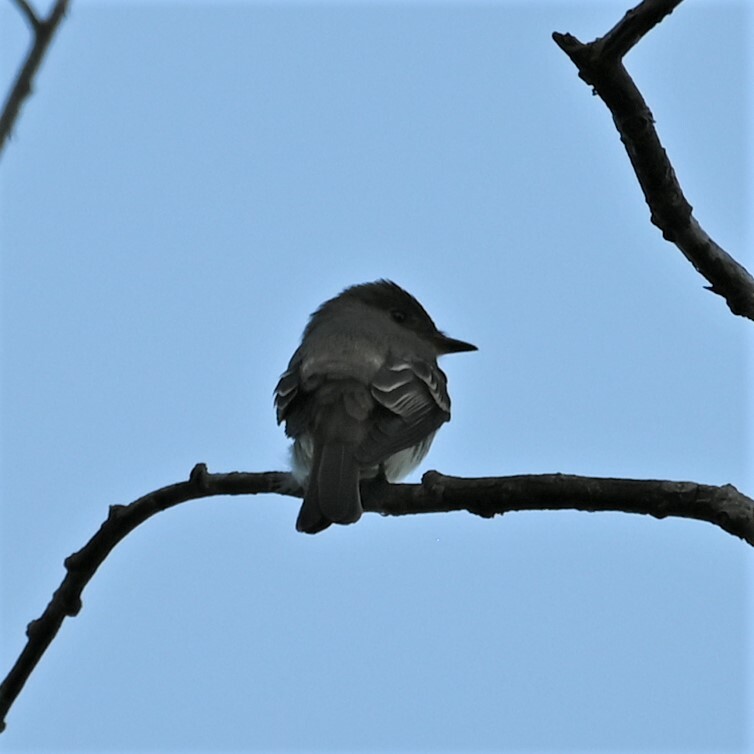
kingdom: Animalia
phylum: Chordata
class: Aves
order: Passeriformes
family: Tyrannidae
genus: Contopus
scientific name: Contopus virens
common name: Eastern wood-pewee
